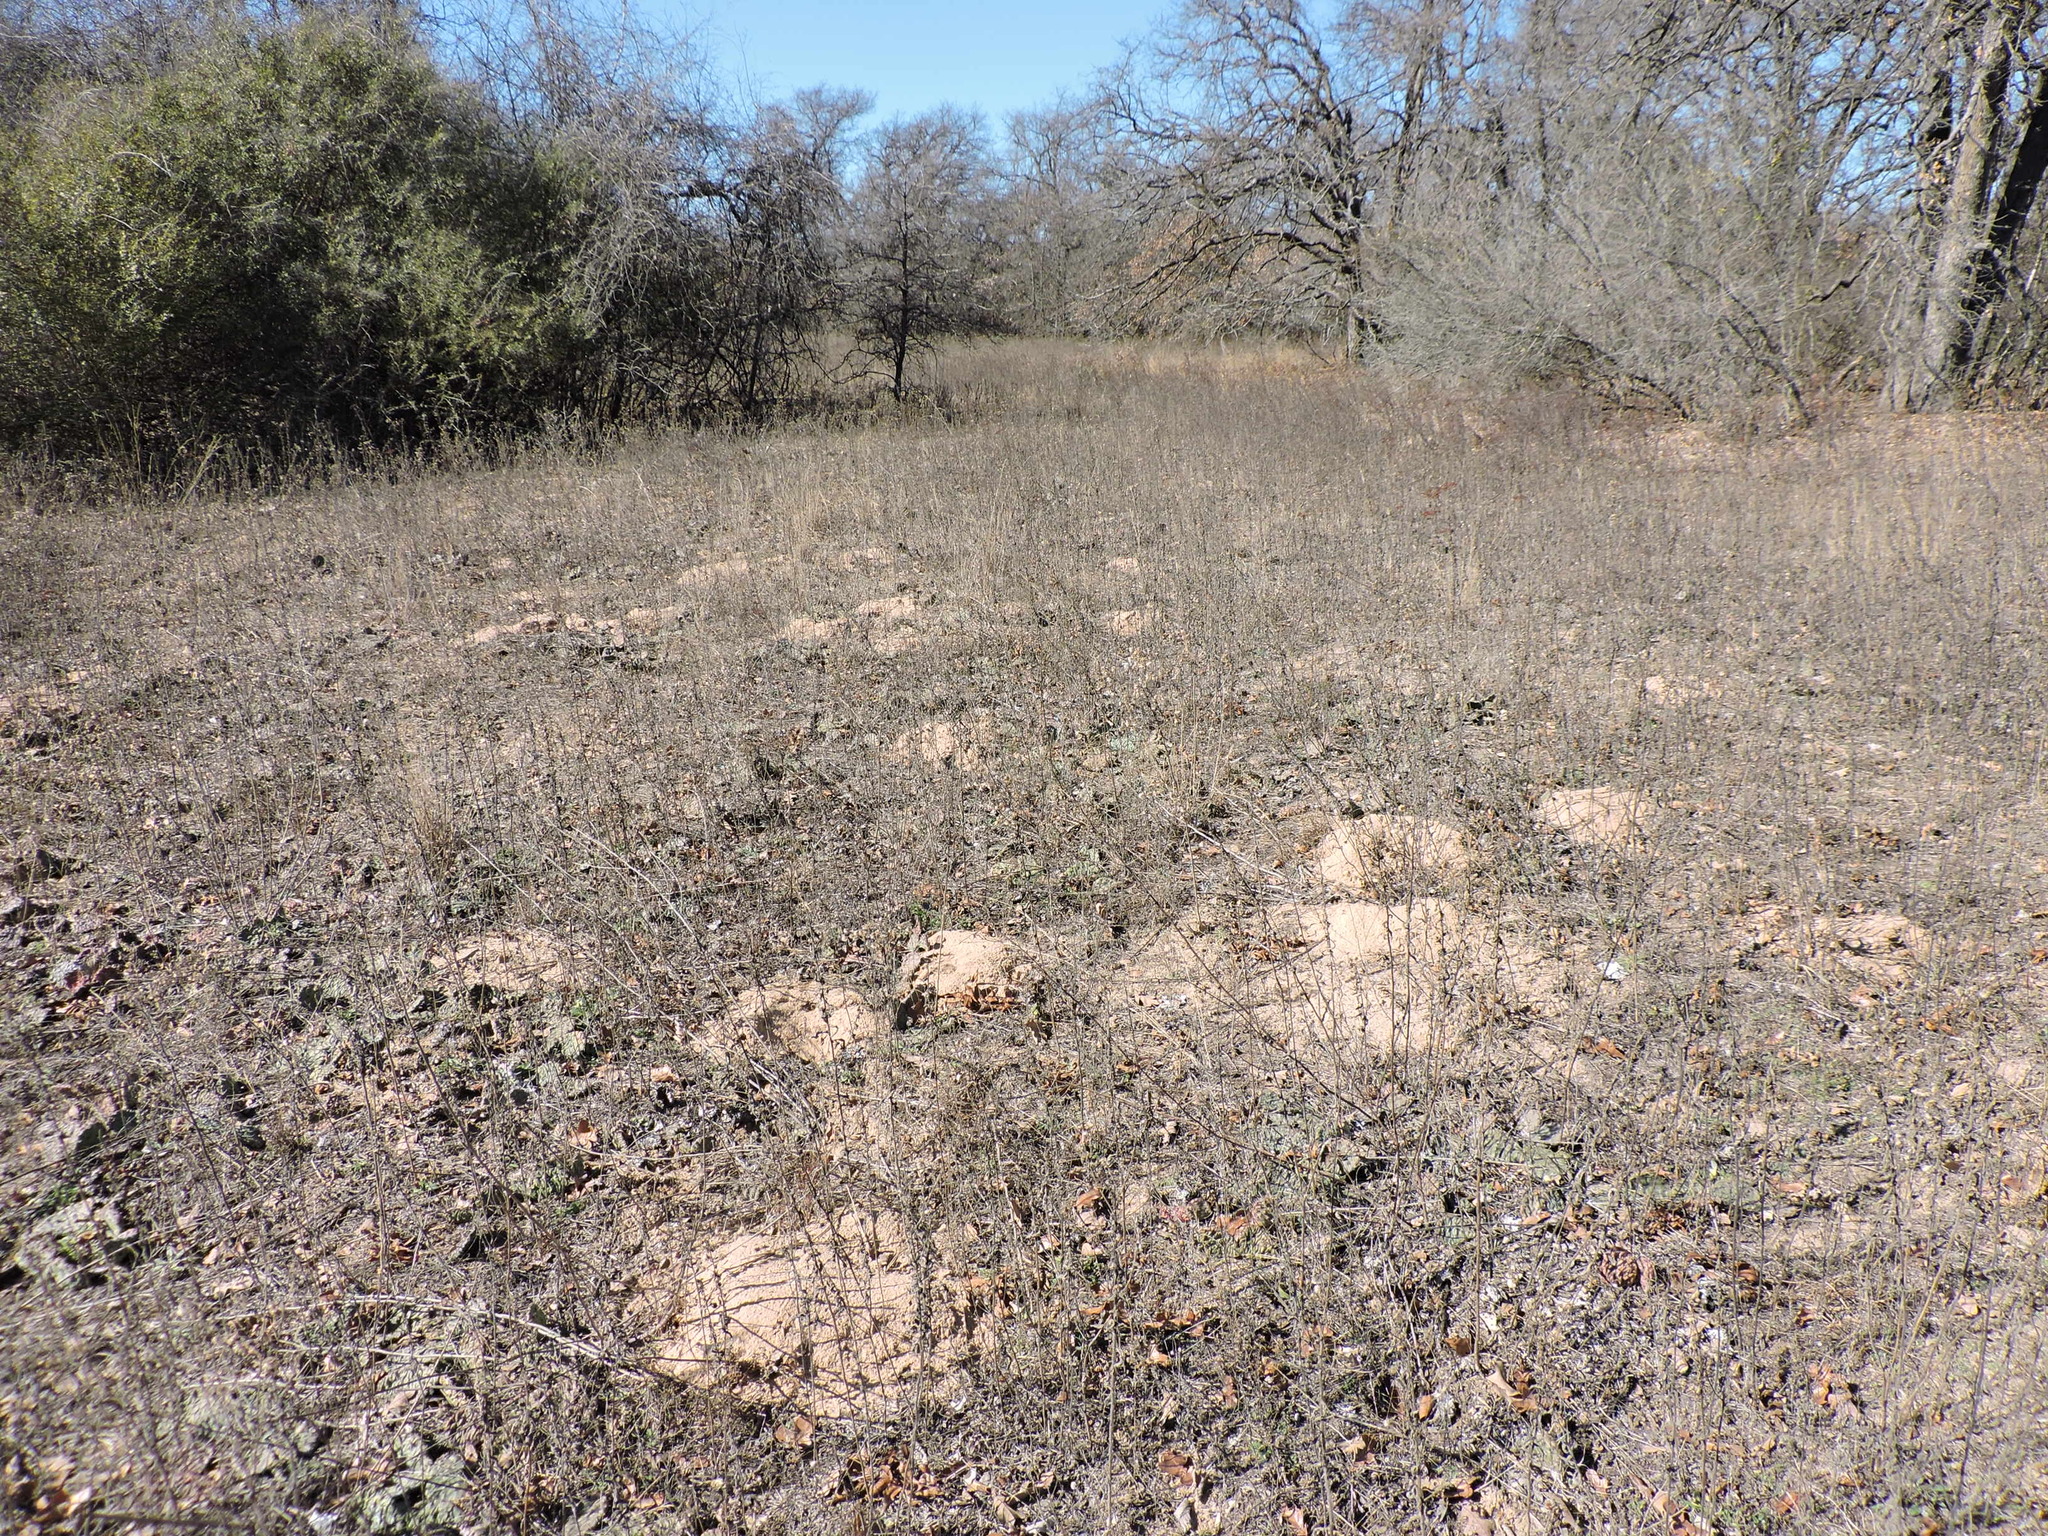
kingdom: Animalia
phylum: Chordata
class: Mammalia
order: Rodentia
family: Geomyidae
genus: Geomys
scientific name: Geomys bursarius
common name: Plains pocket gopher
